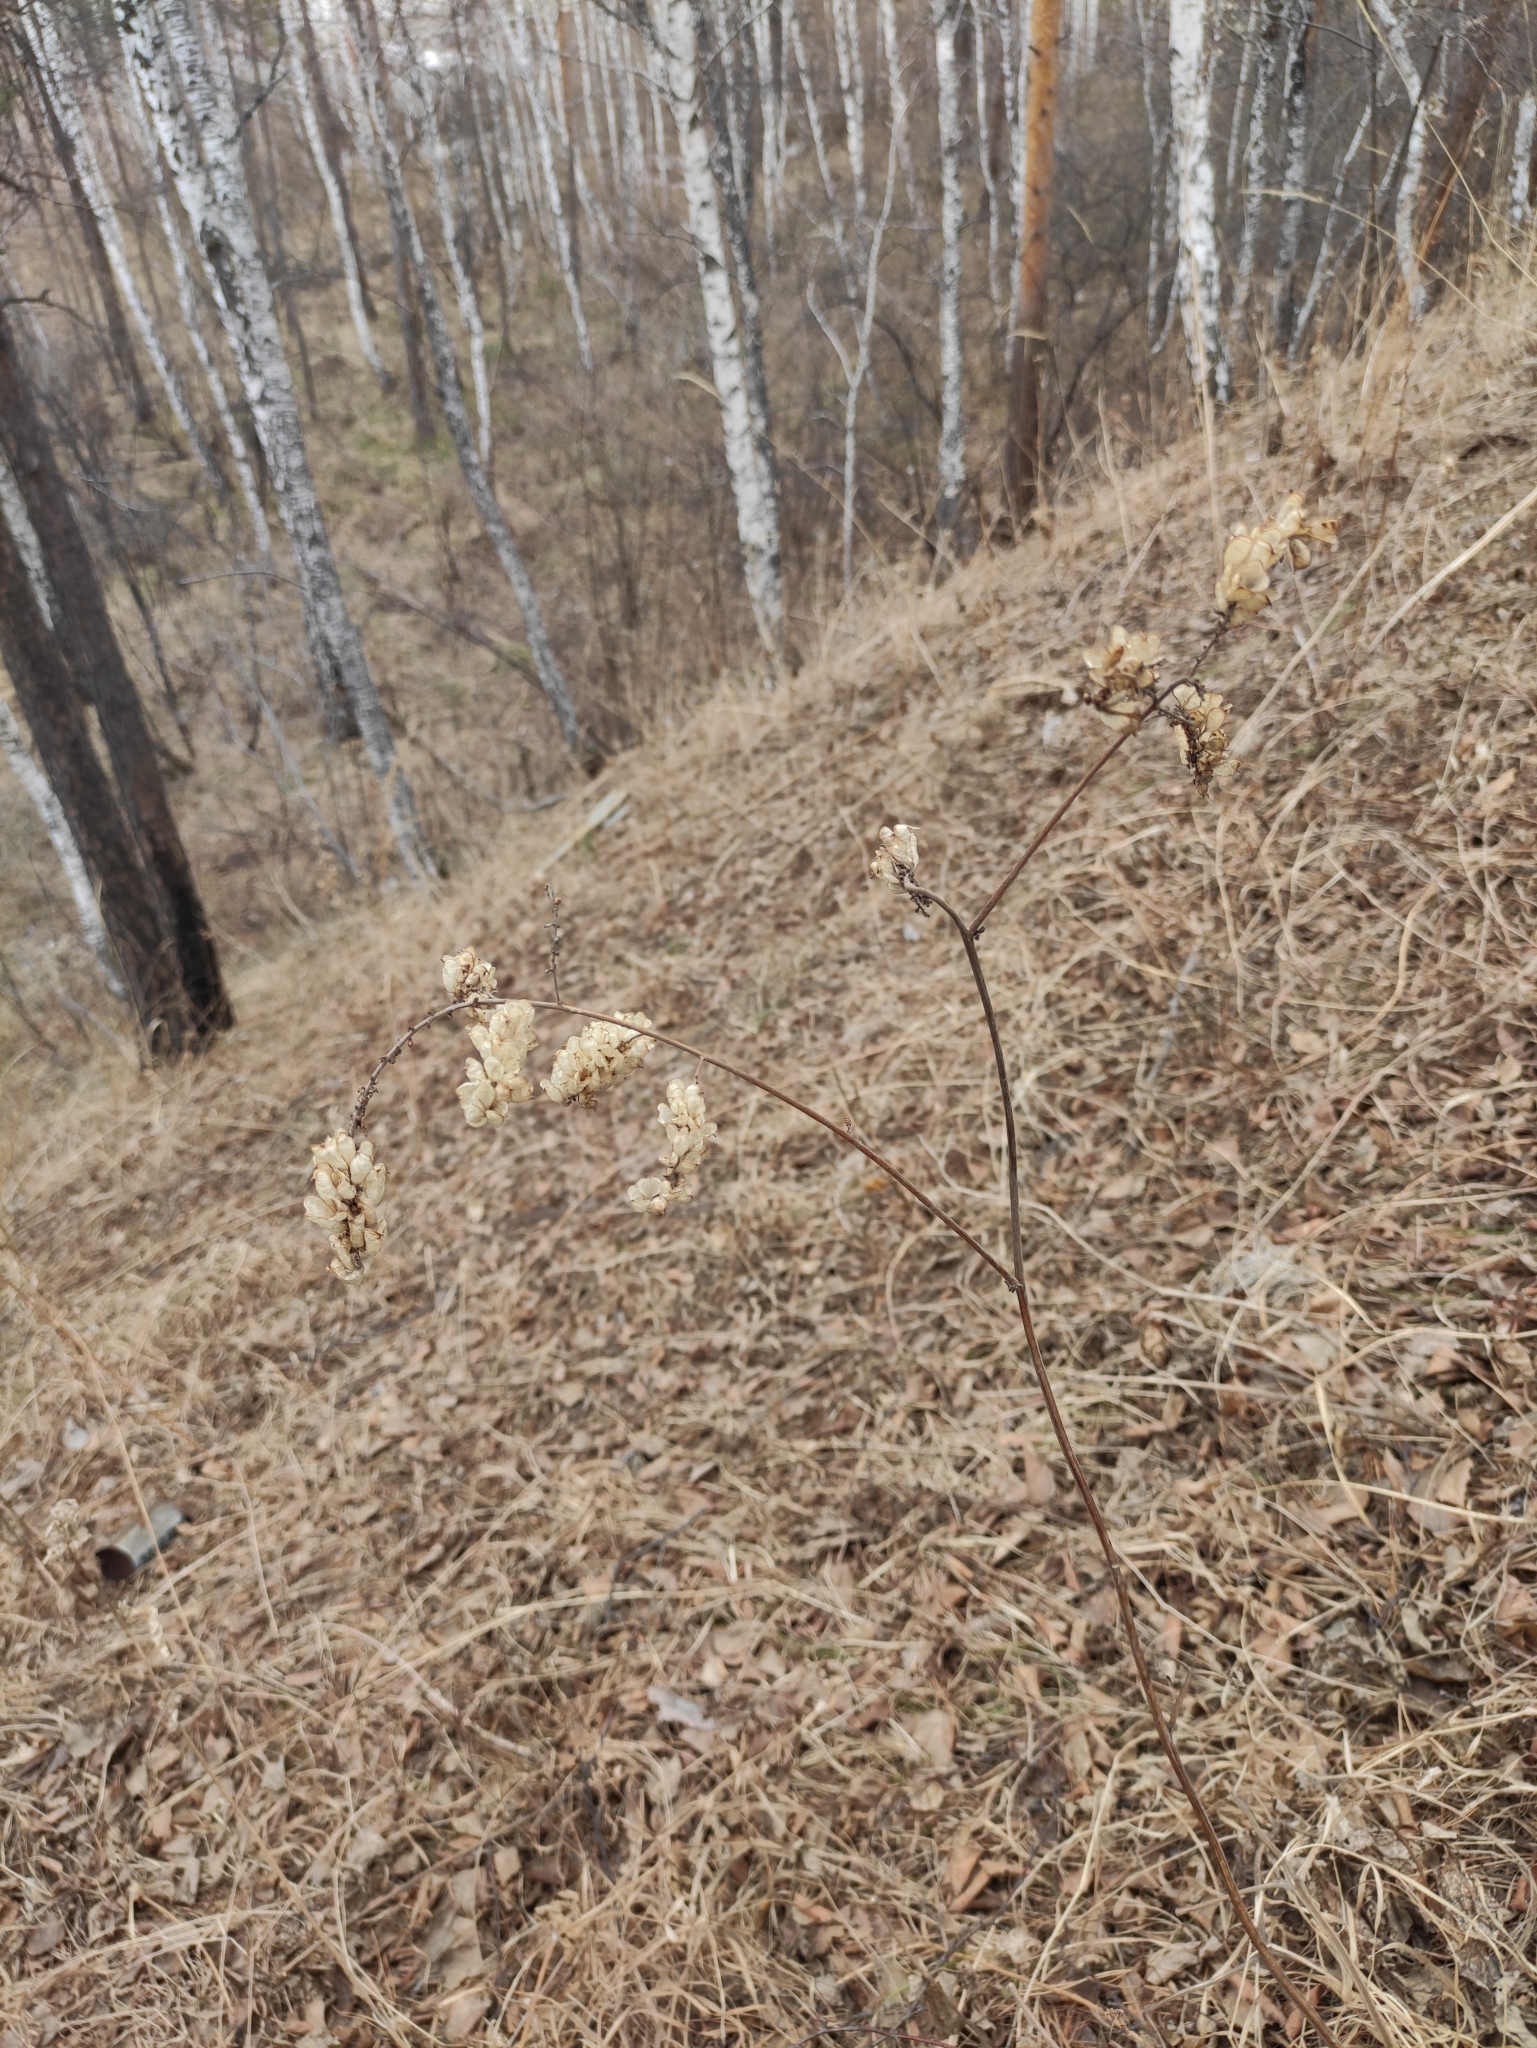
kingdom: Plantae
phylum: Tracheophyta
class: Magnoliopsida
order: Ranunculales
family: Ranunculaceae
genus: Actaea
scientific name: Actaea cimicifuga
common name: Chinese cimicifuga
